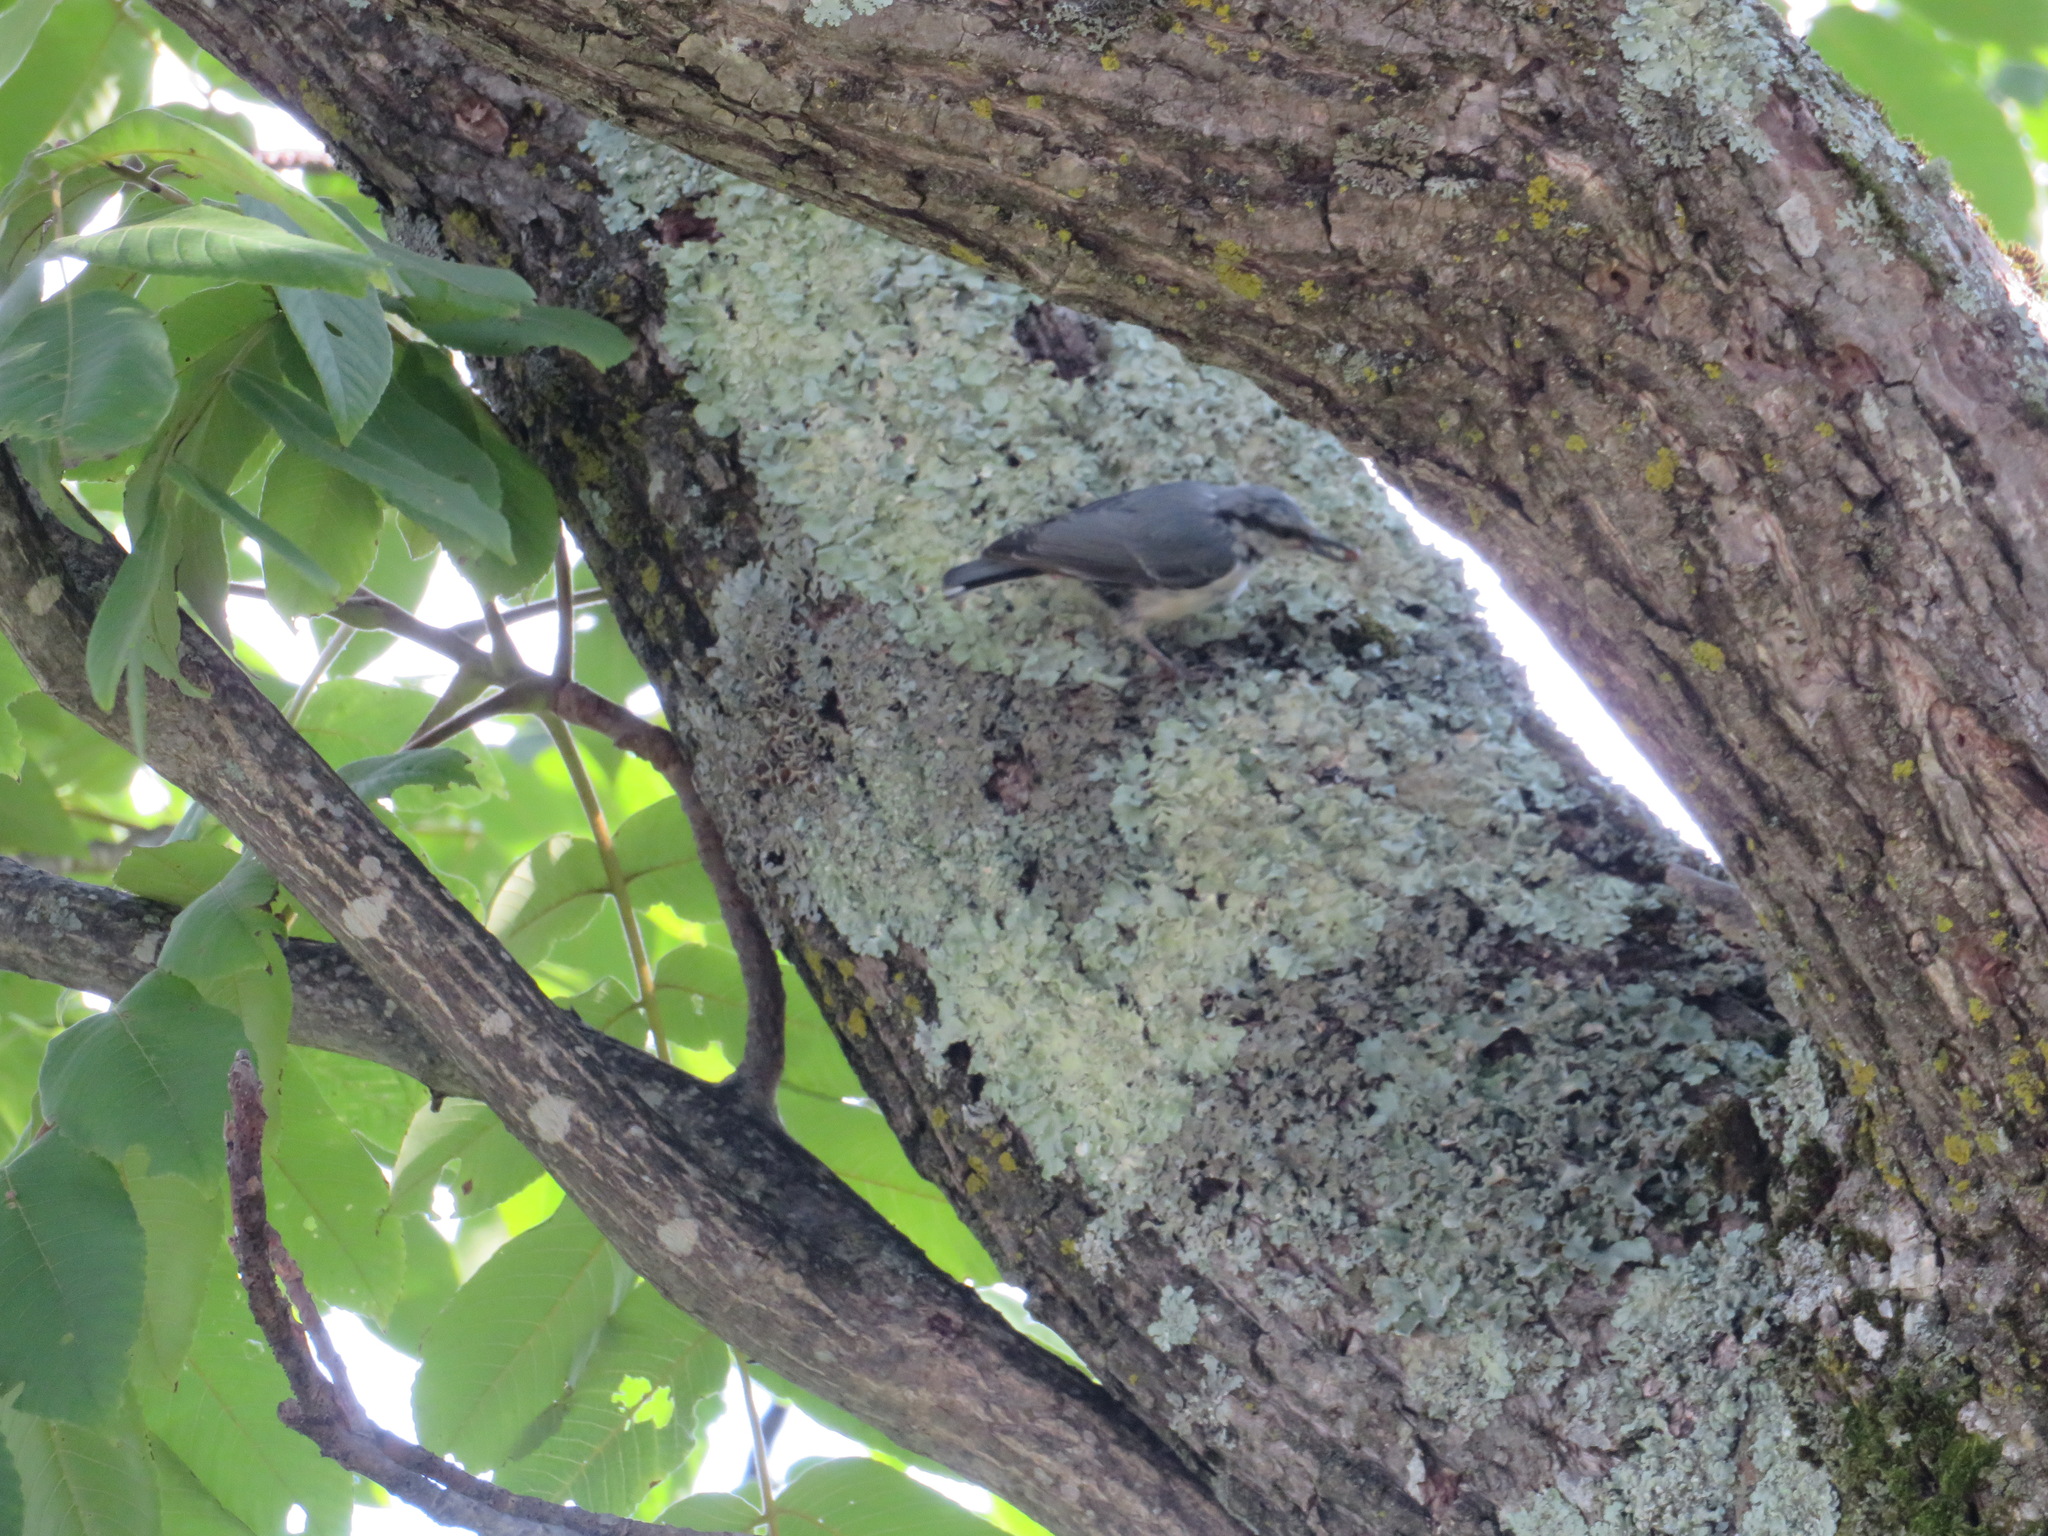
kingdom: Animalia
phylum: Chordata
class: Aves
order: Passeriformes
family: Sittidae
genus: Sitta
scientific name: Sitta europaea
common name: Eurasian nuthatch
